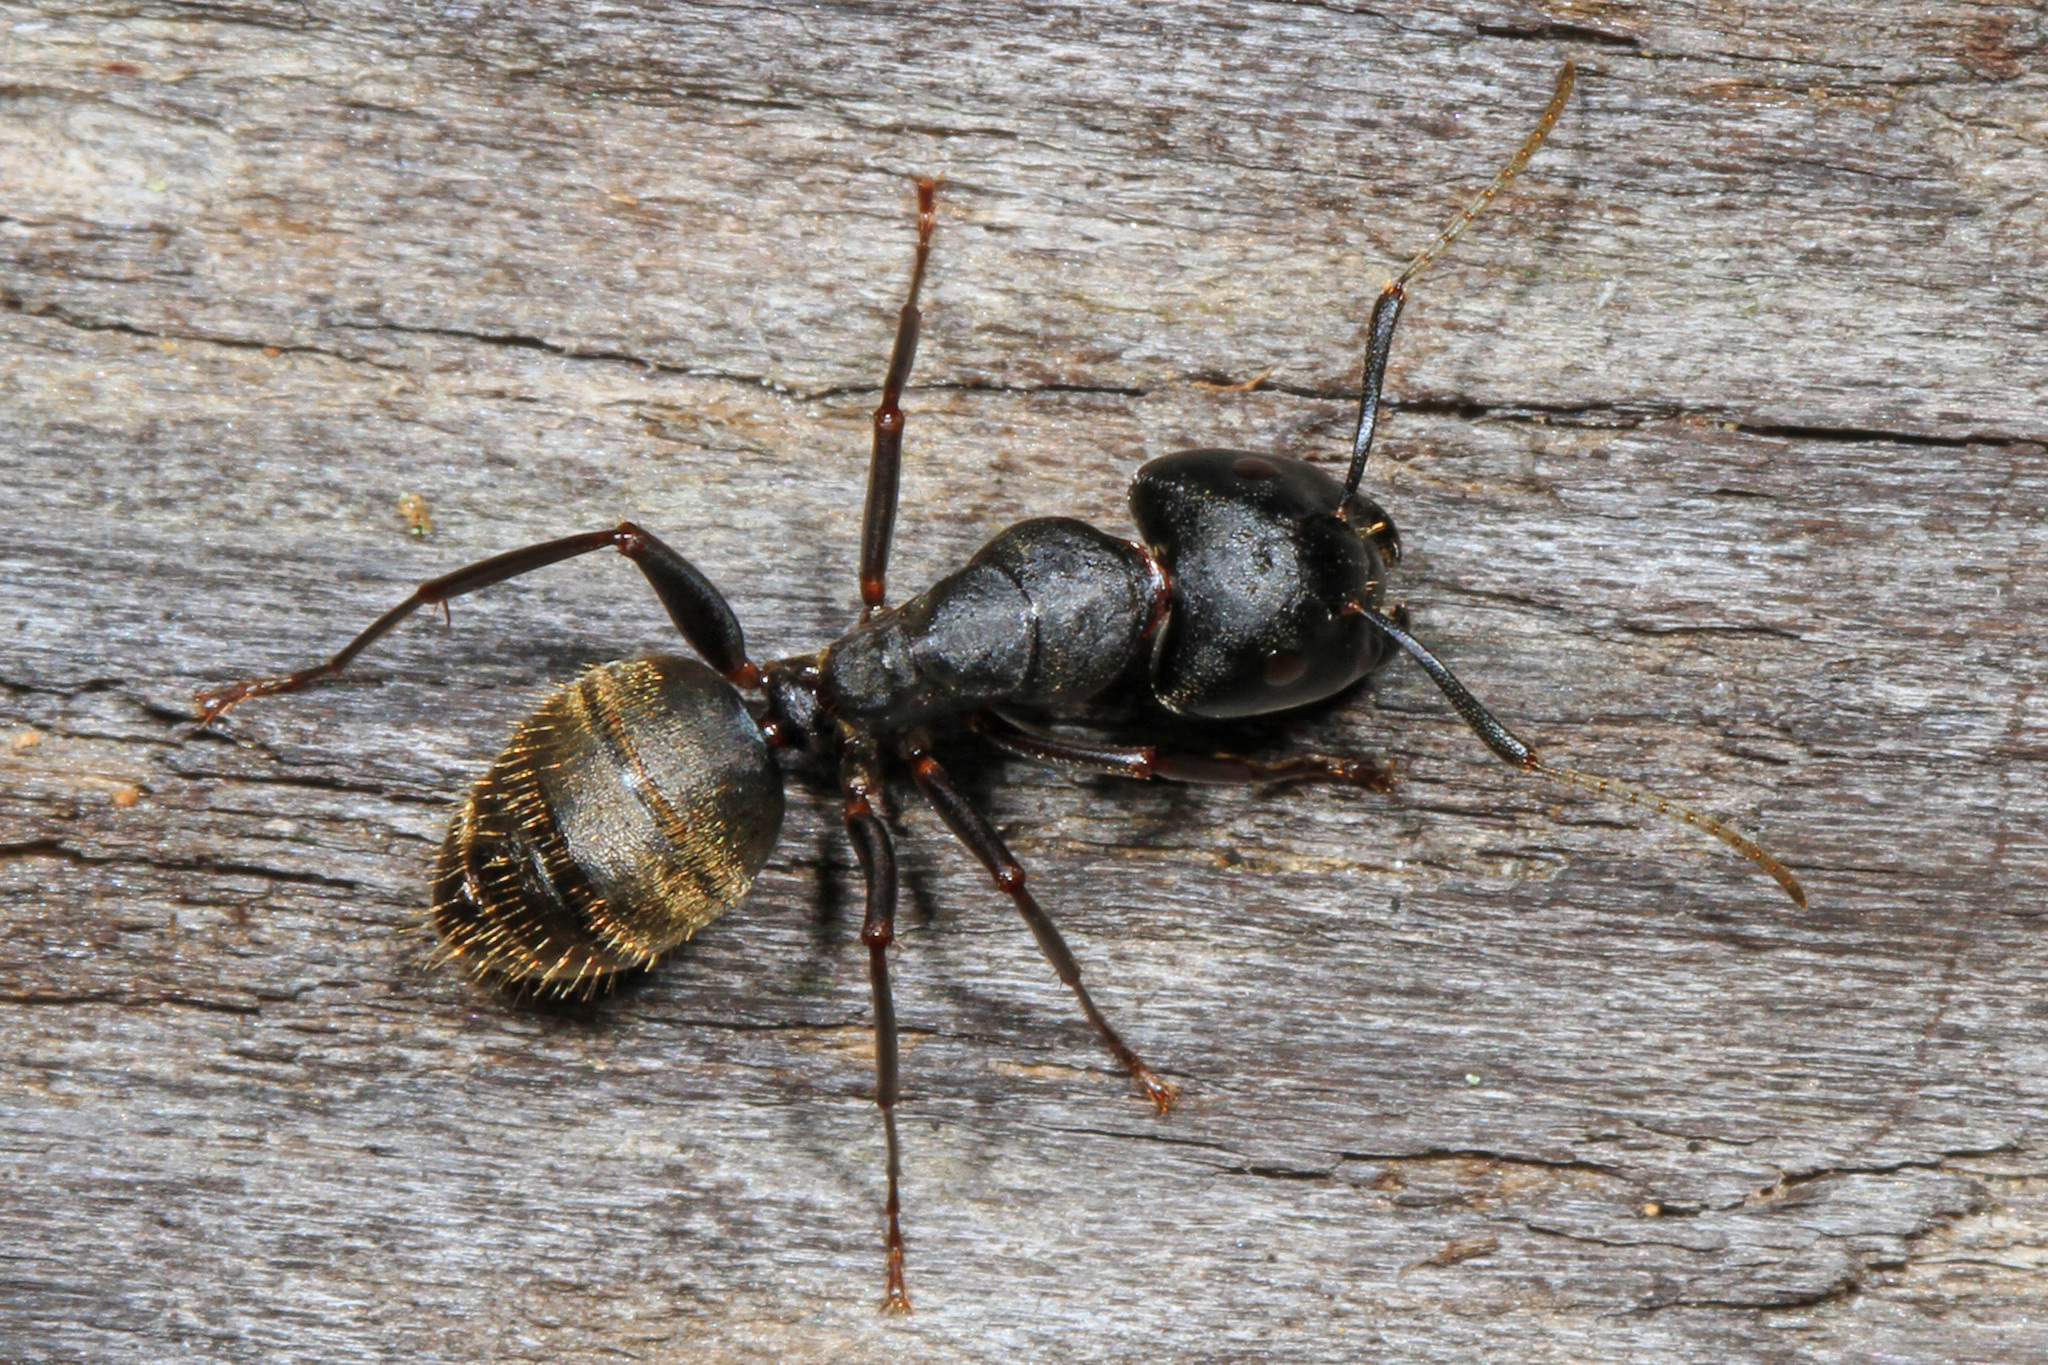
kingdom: Animalia
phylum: Arthropoda
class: Insecta
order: Hymenoptera
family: Formicidae
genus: Camponotus
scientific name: Camponotus pennsylvanicus
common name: Black carpenter ant
